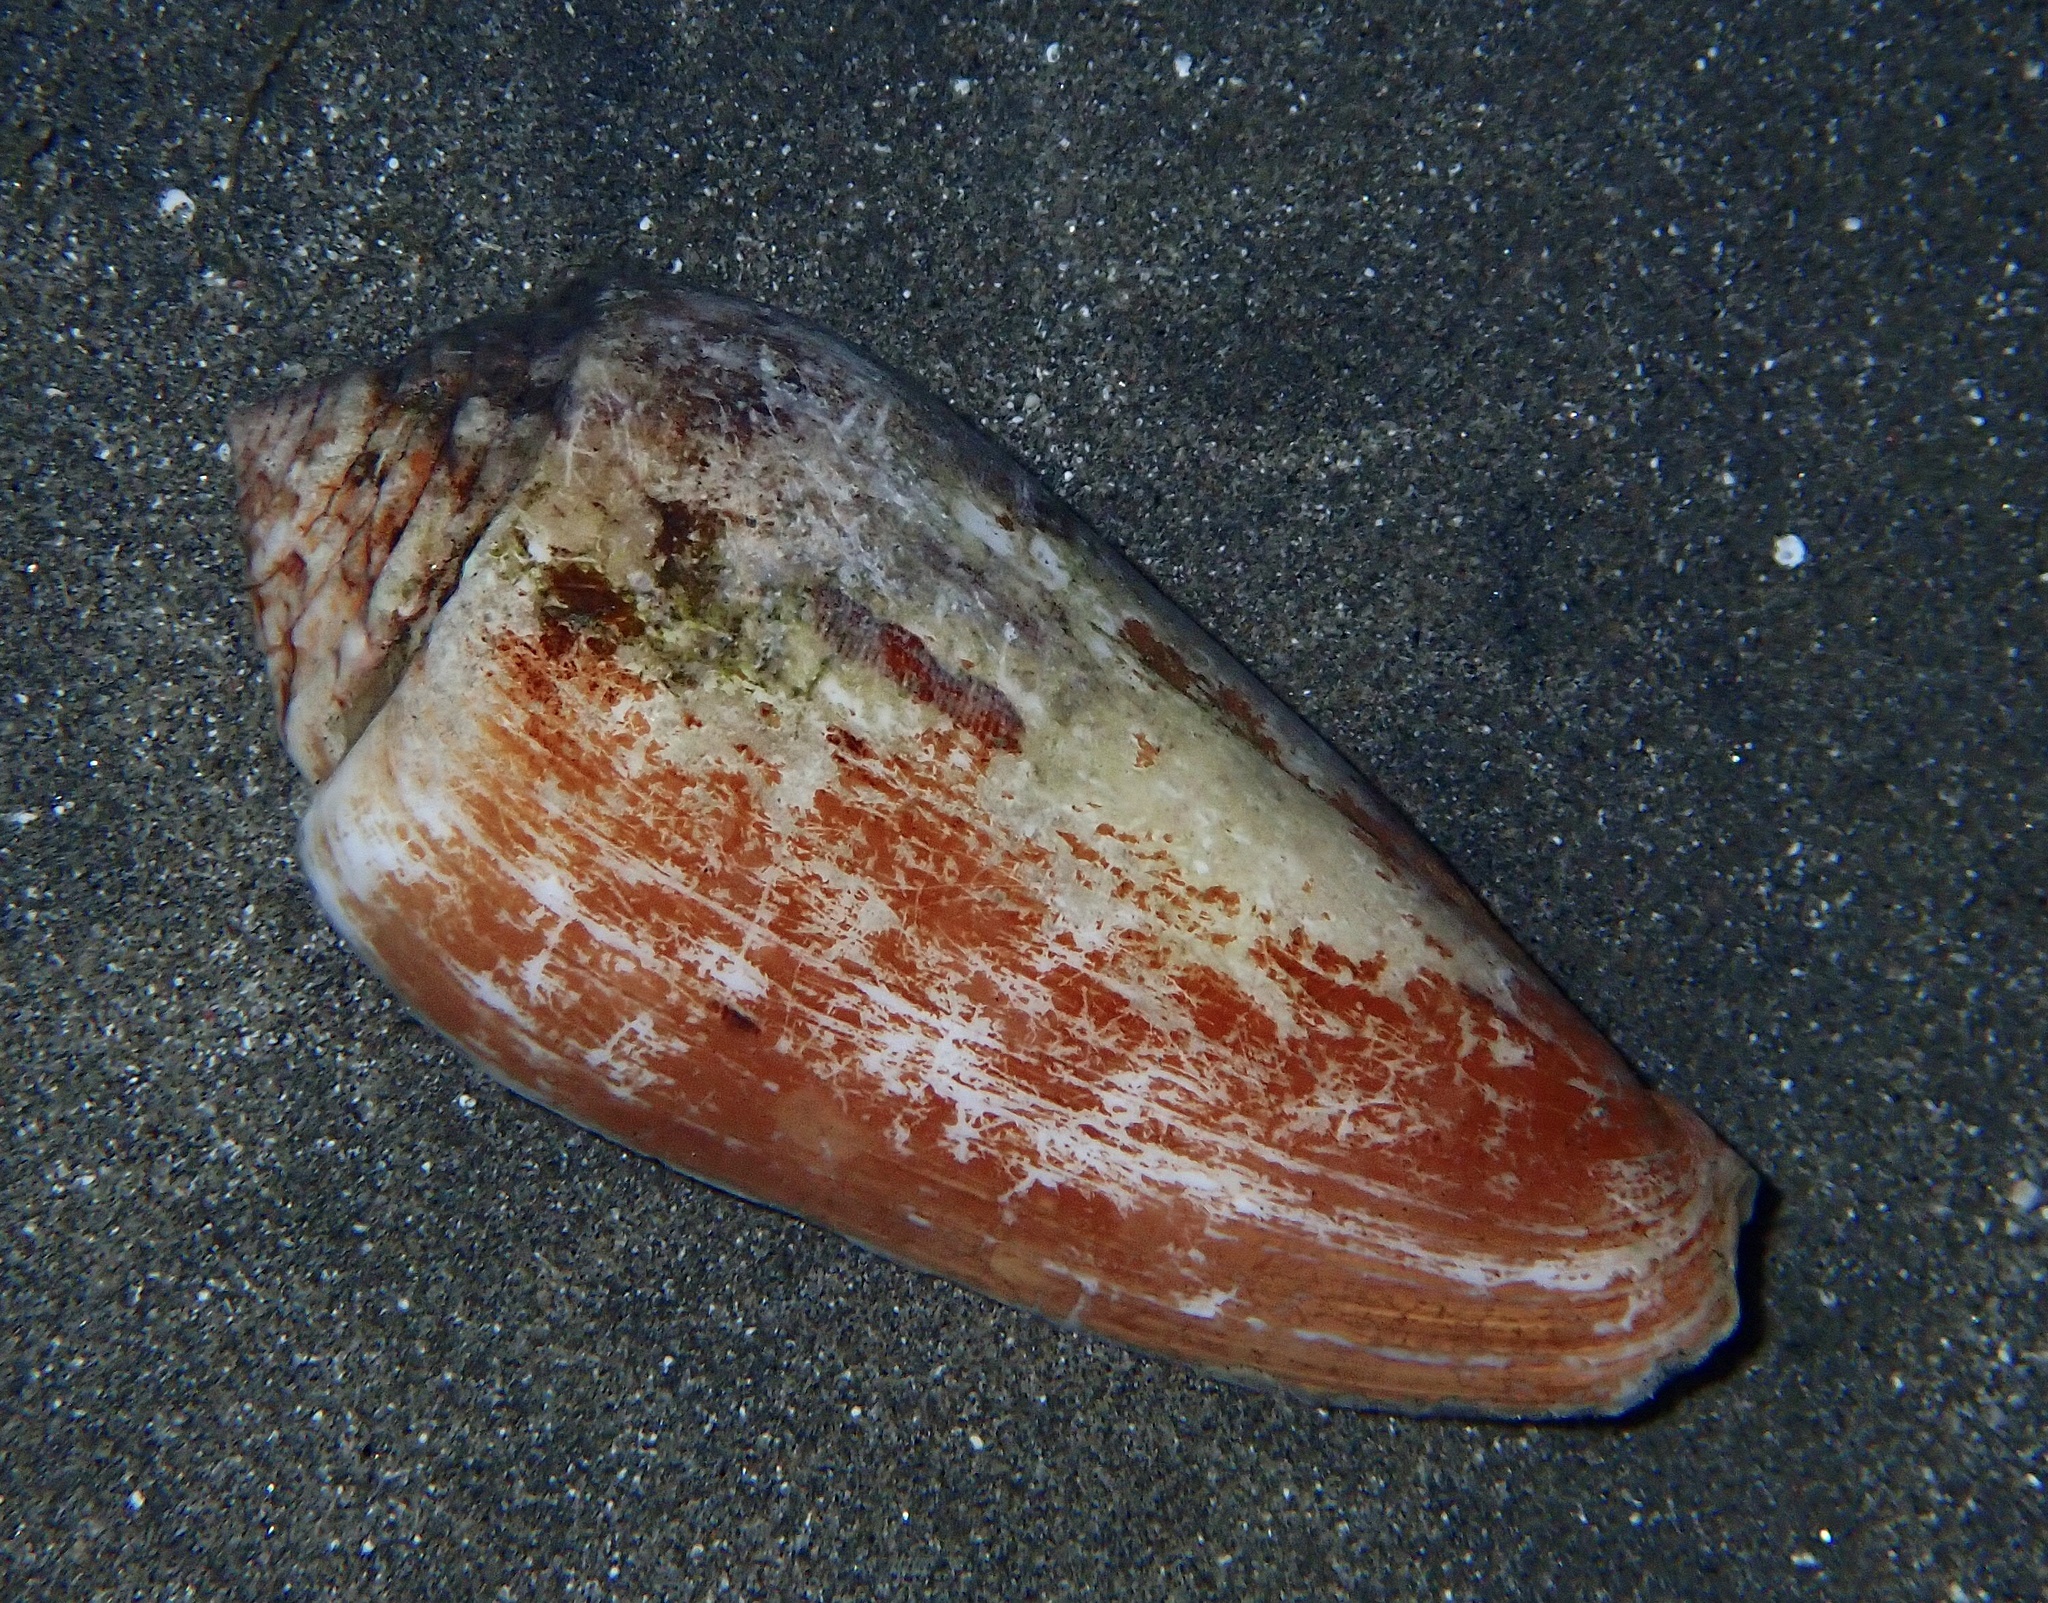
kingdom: Animalia
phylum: Mollusca
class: Gastropoda
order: Neogastropoda
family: Conidae
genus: Conus
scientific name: Conus juliaallaryae
